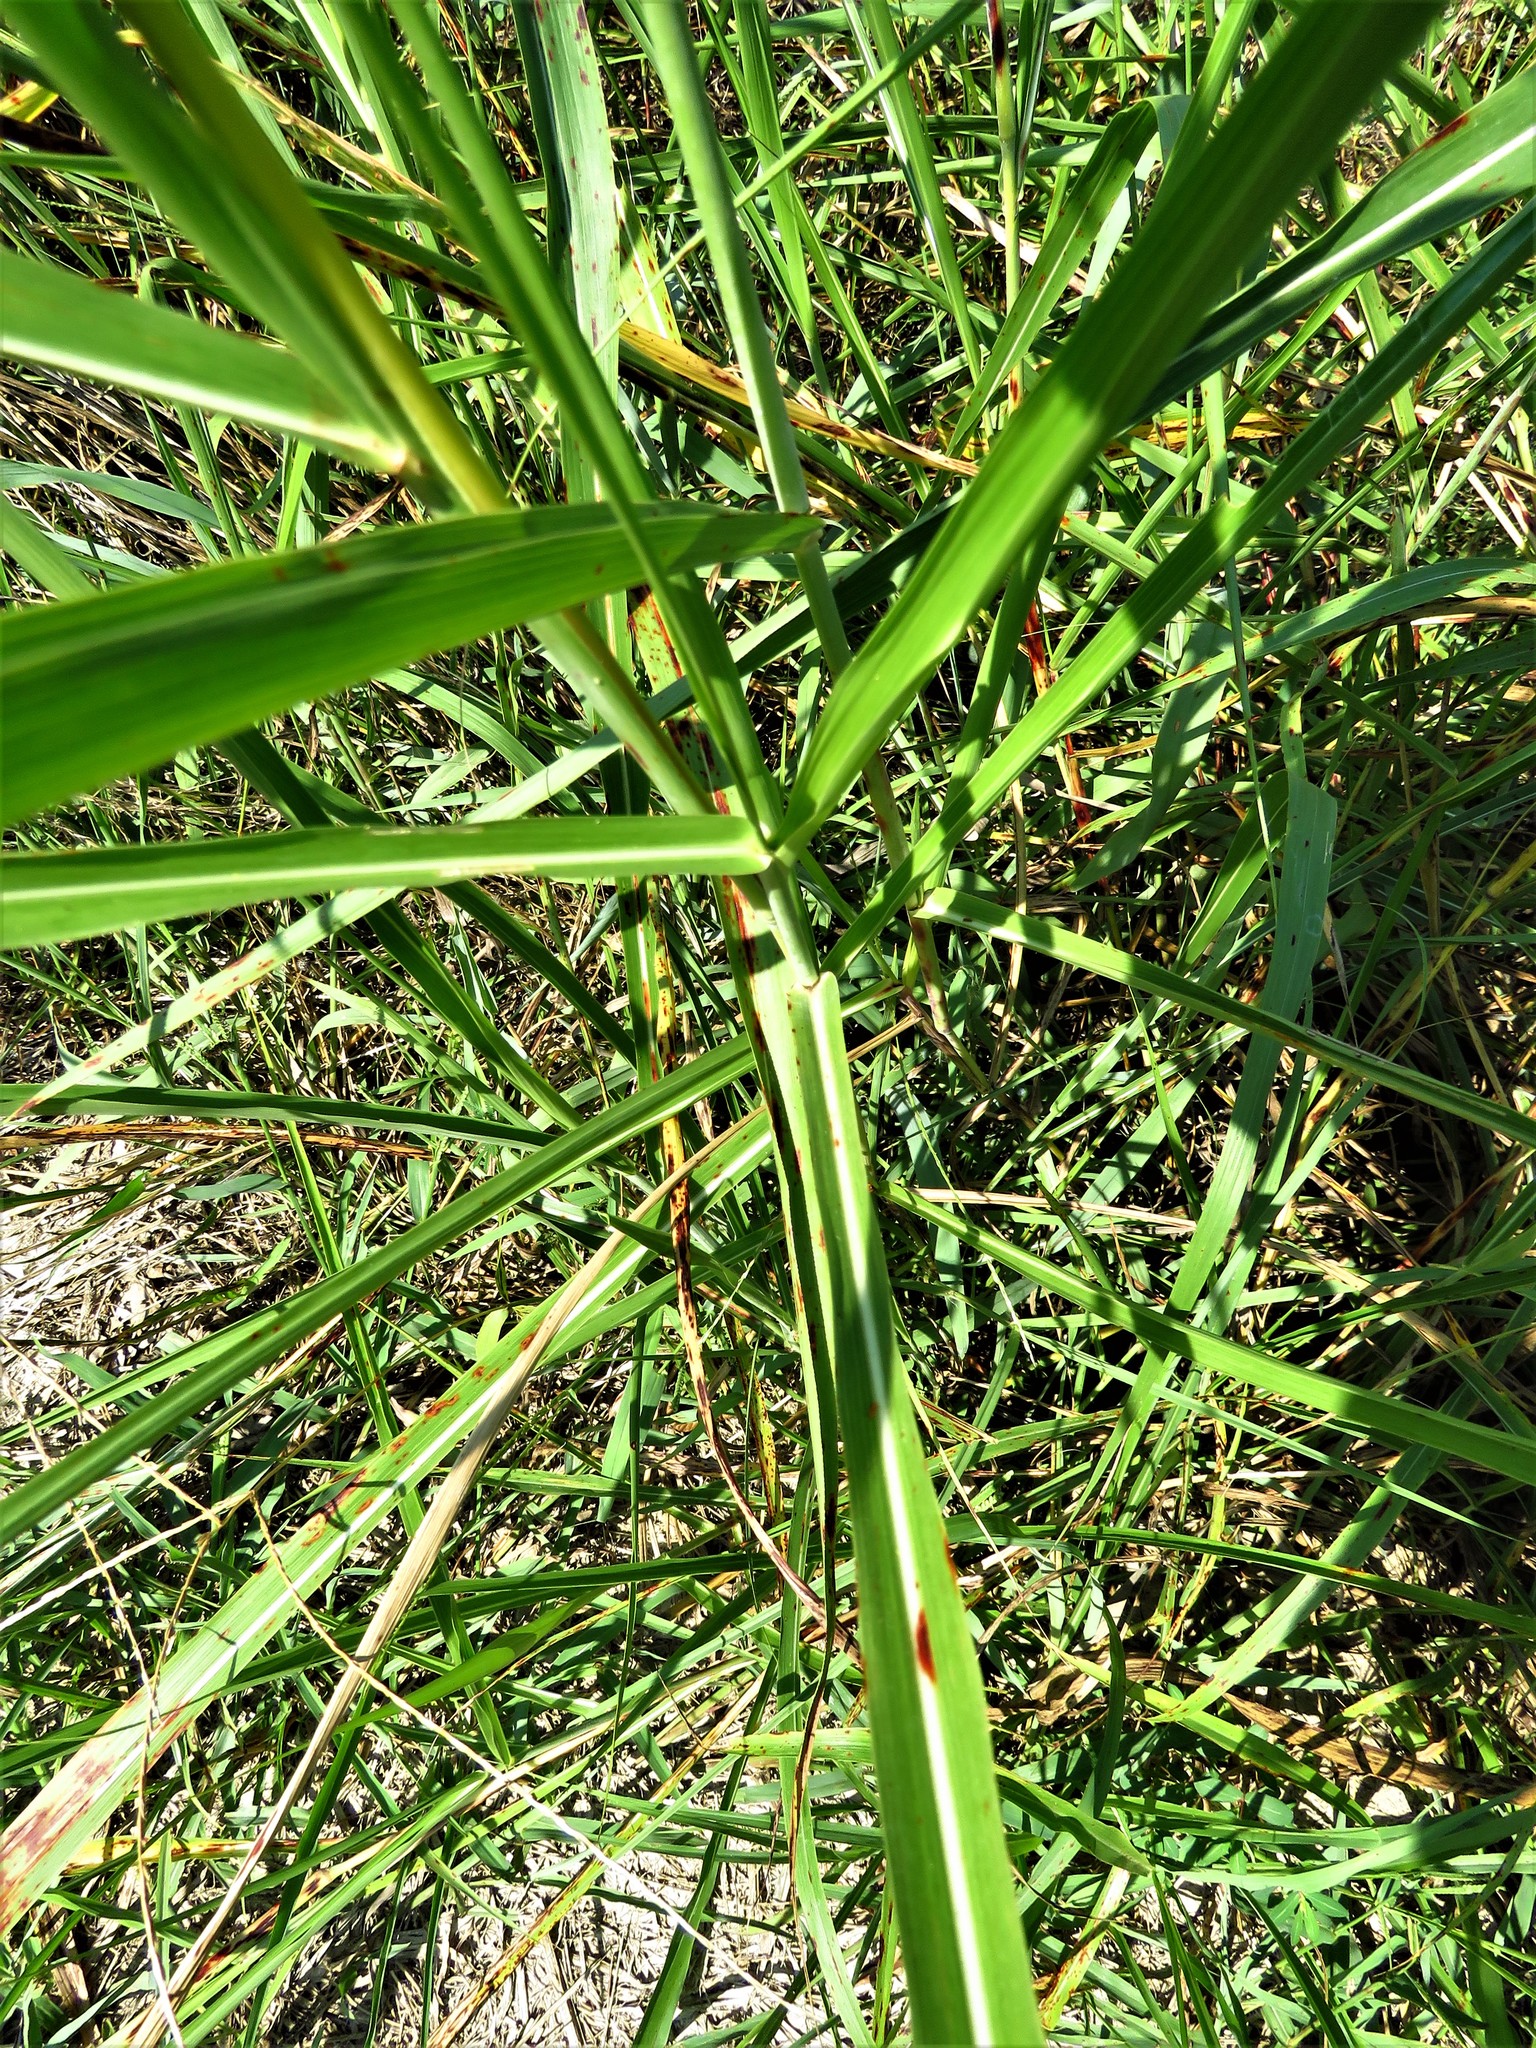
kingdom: Plantae
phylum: Tracheophyta
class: Liliopsida
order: Poales
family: Poaceae
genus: Sorghum
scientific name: Sorghum halepense
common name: Johnson-grass
